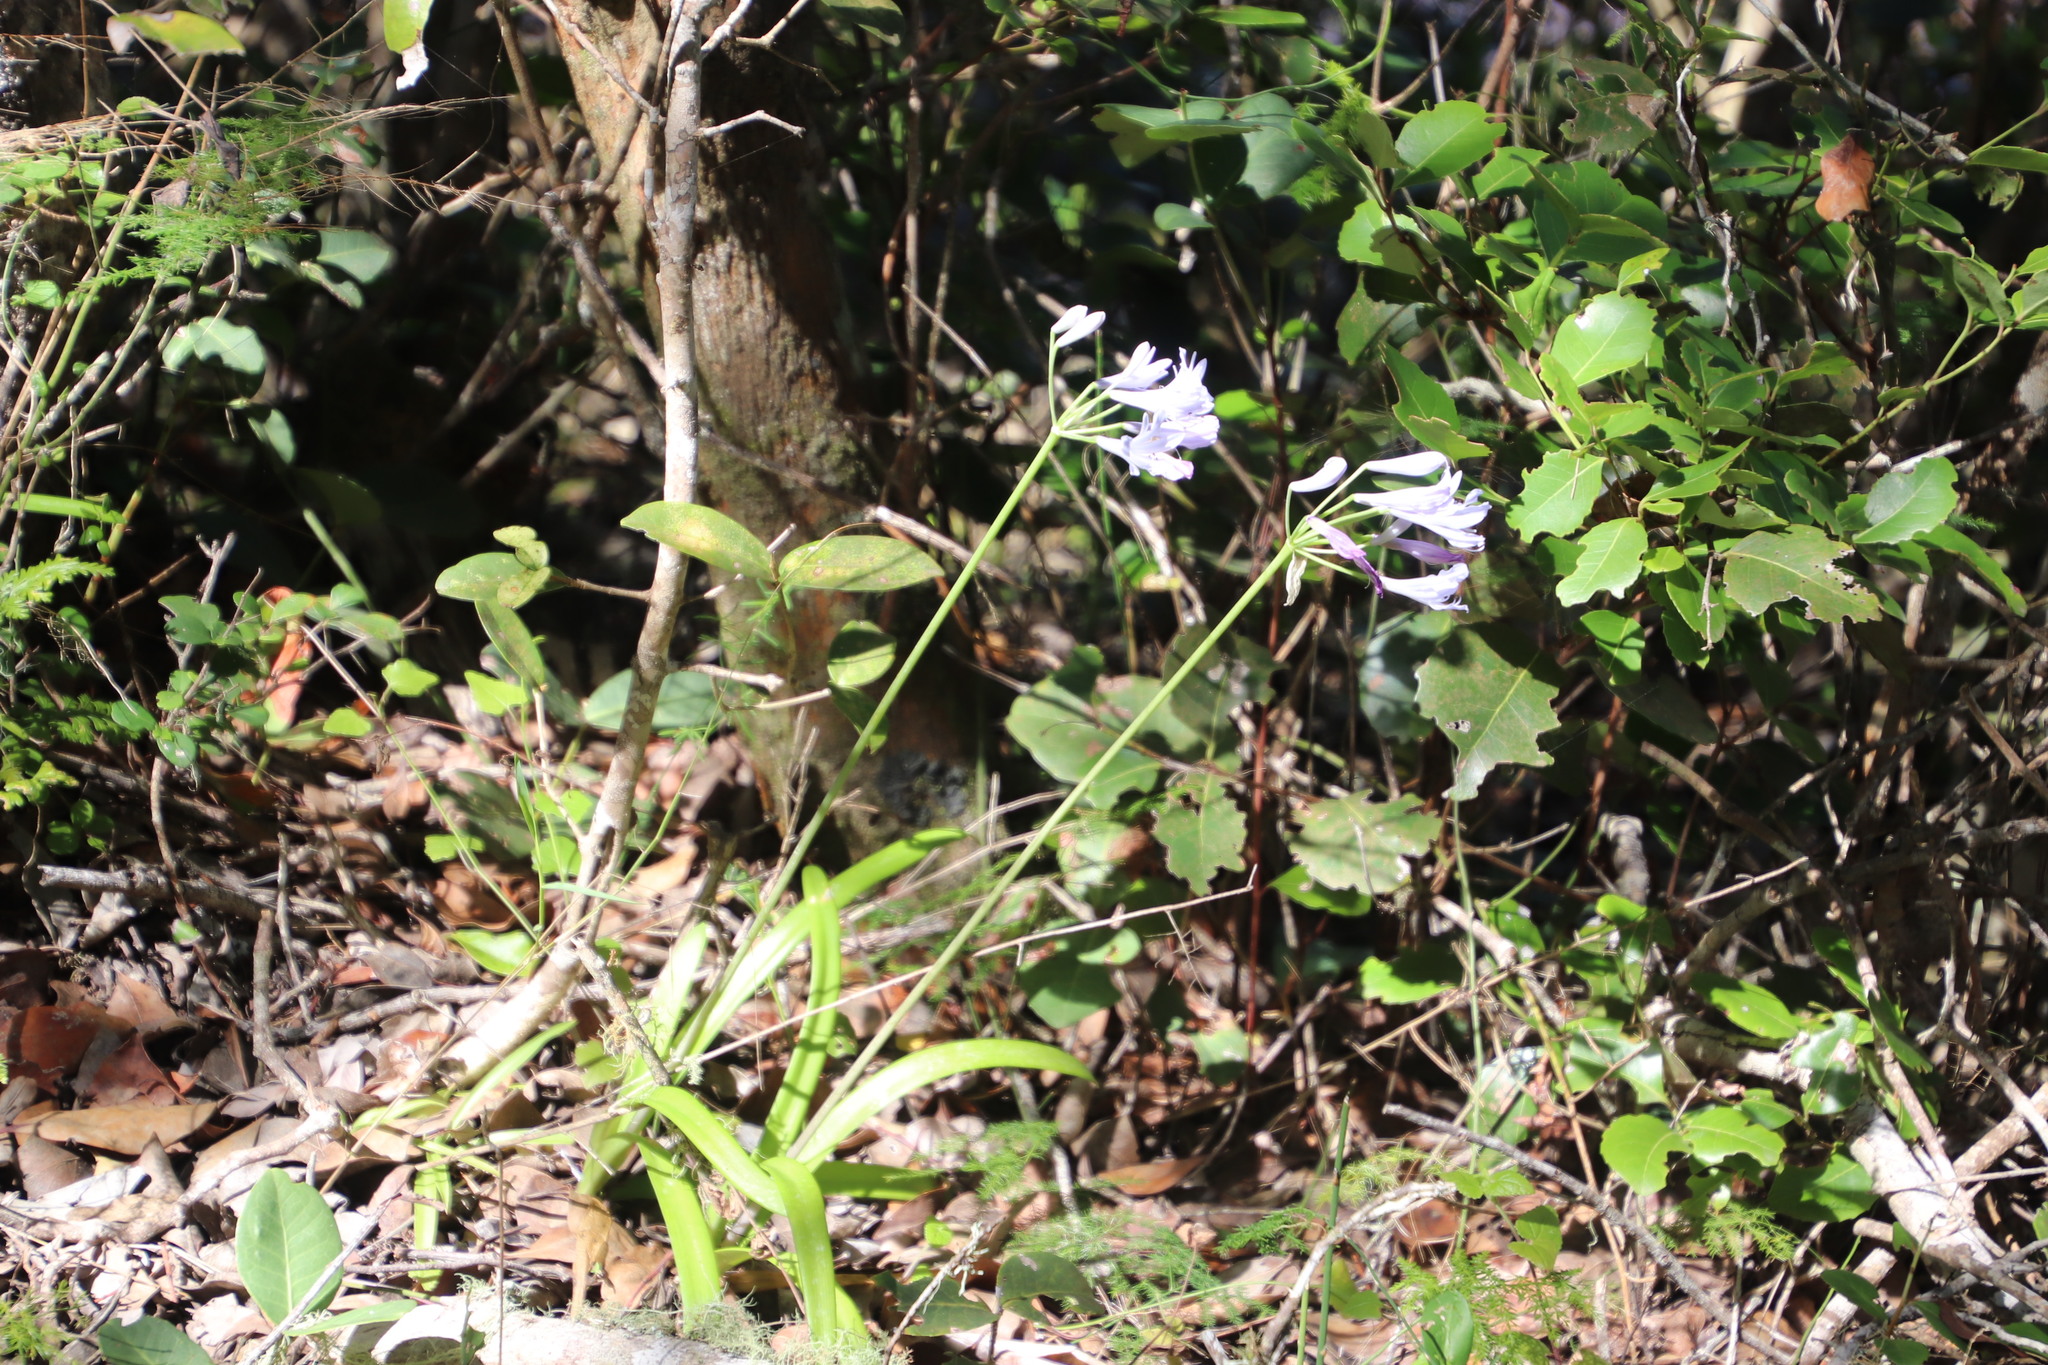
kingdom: Plantae
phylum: Tracheophyta
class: Liliopsida
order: Asparagales
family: Amaryllidaceae
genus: Agapanthus
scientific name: Agapanthus praecox
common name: African-lily
